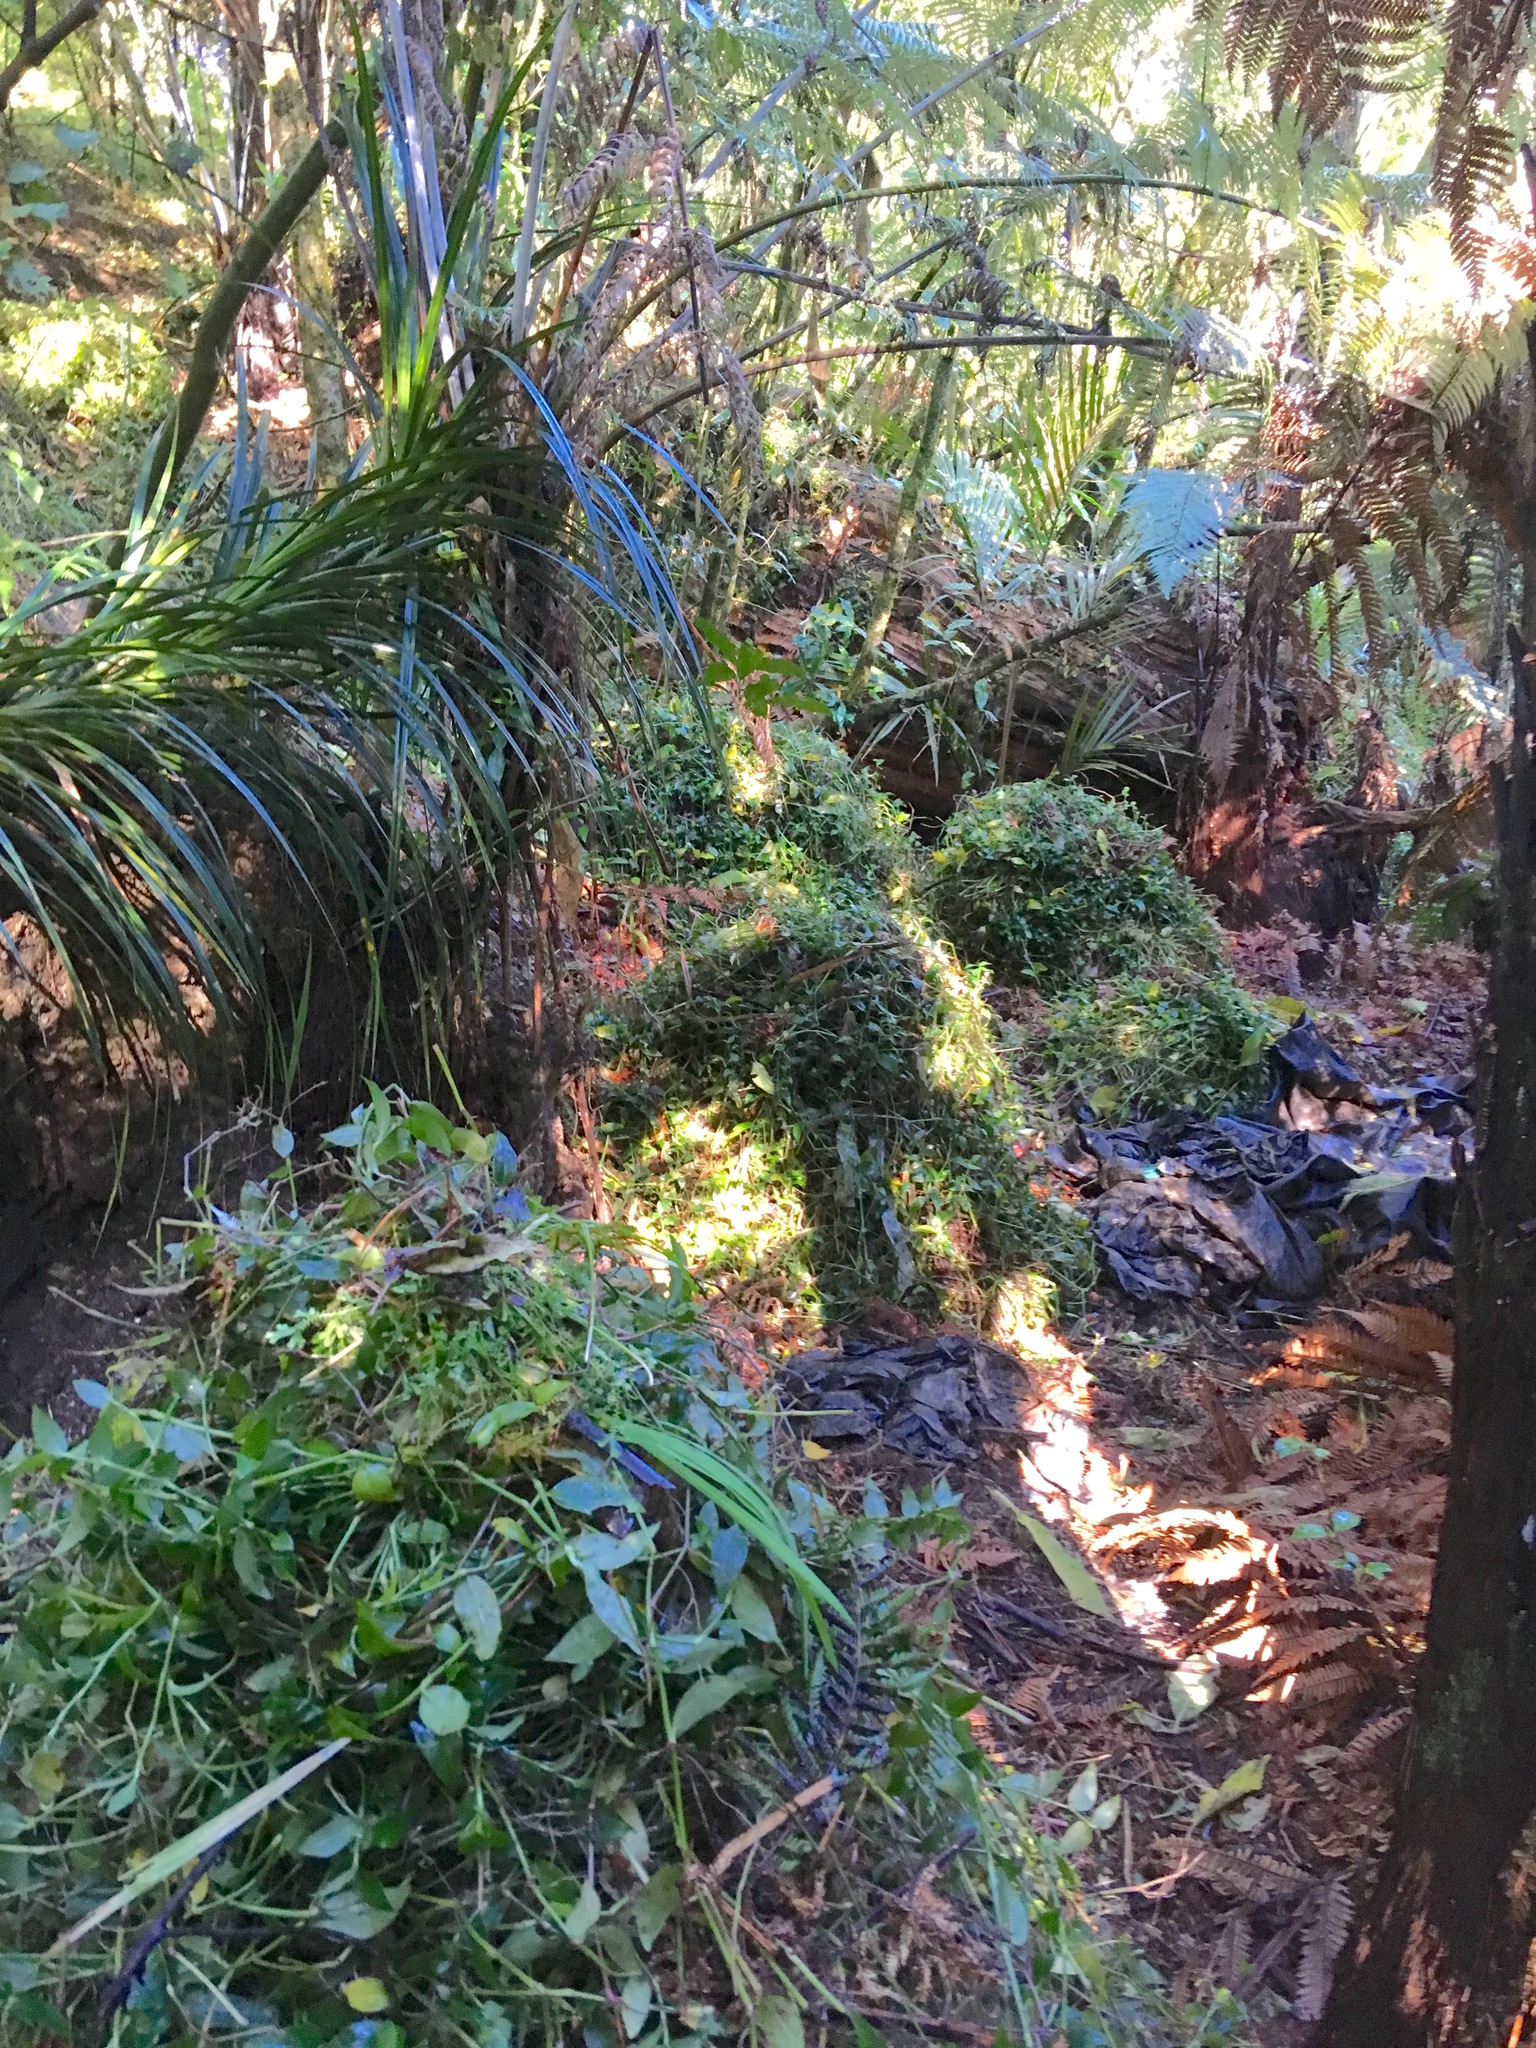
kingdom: Plantae
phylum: Tracheophyta
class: Liliopsida
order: Pandanales
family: Pandanaceae
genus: Freycinetia
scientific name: Freycinetia banksii
